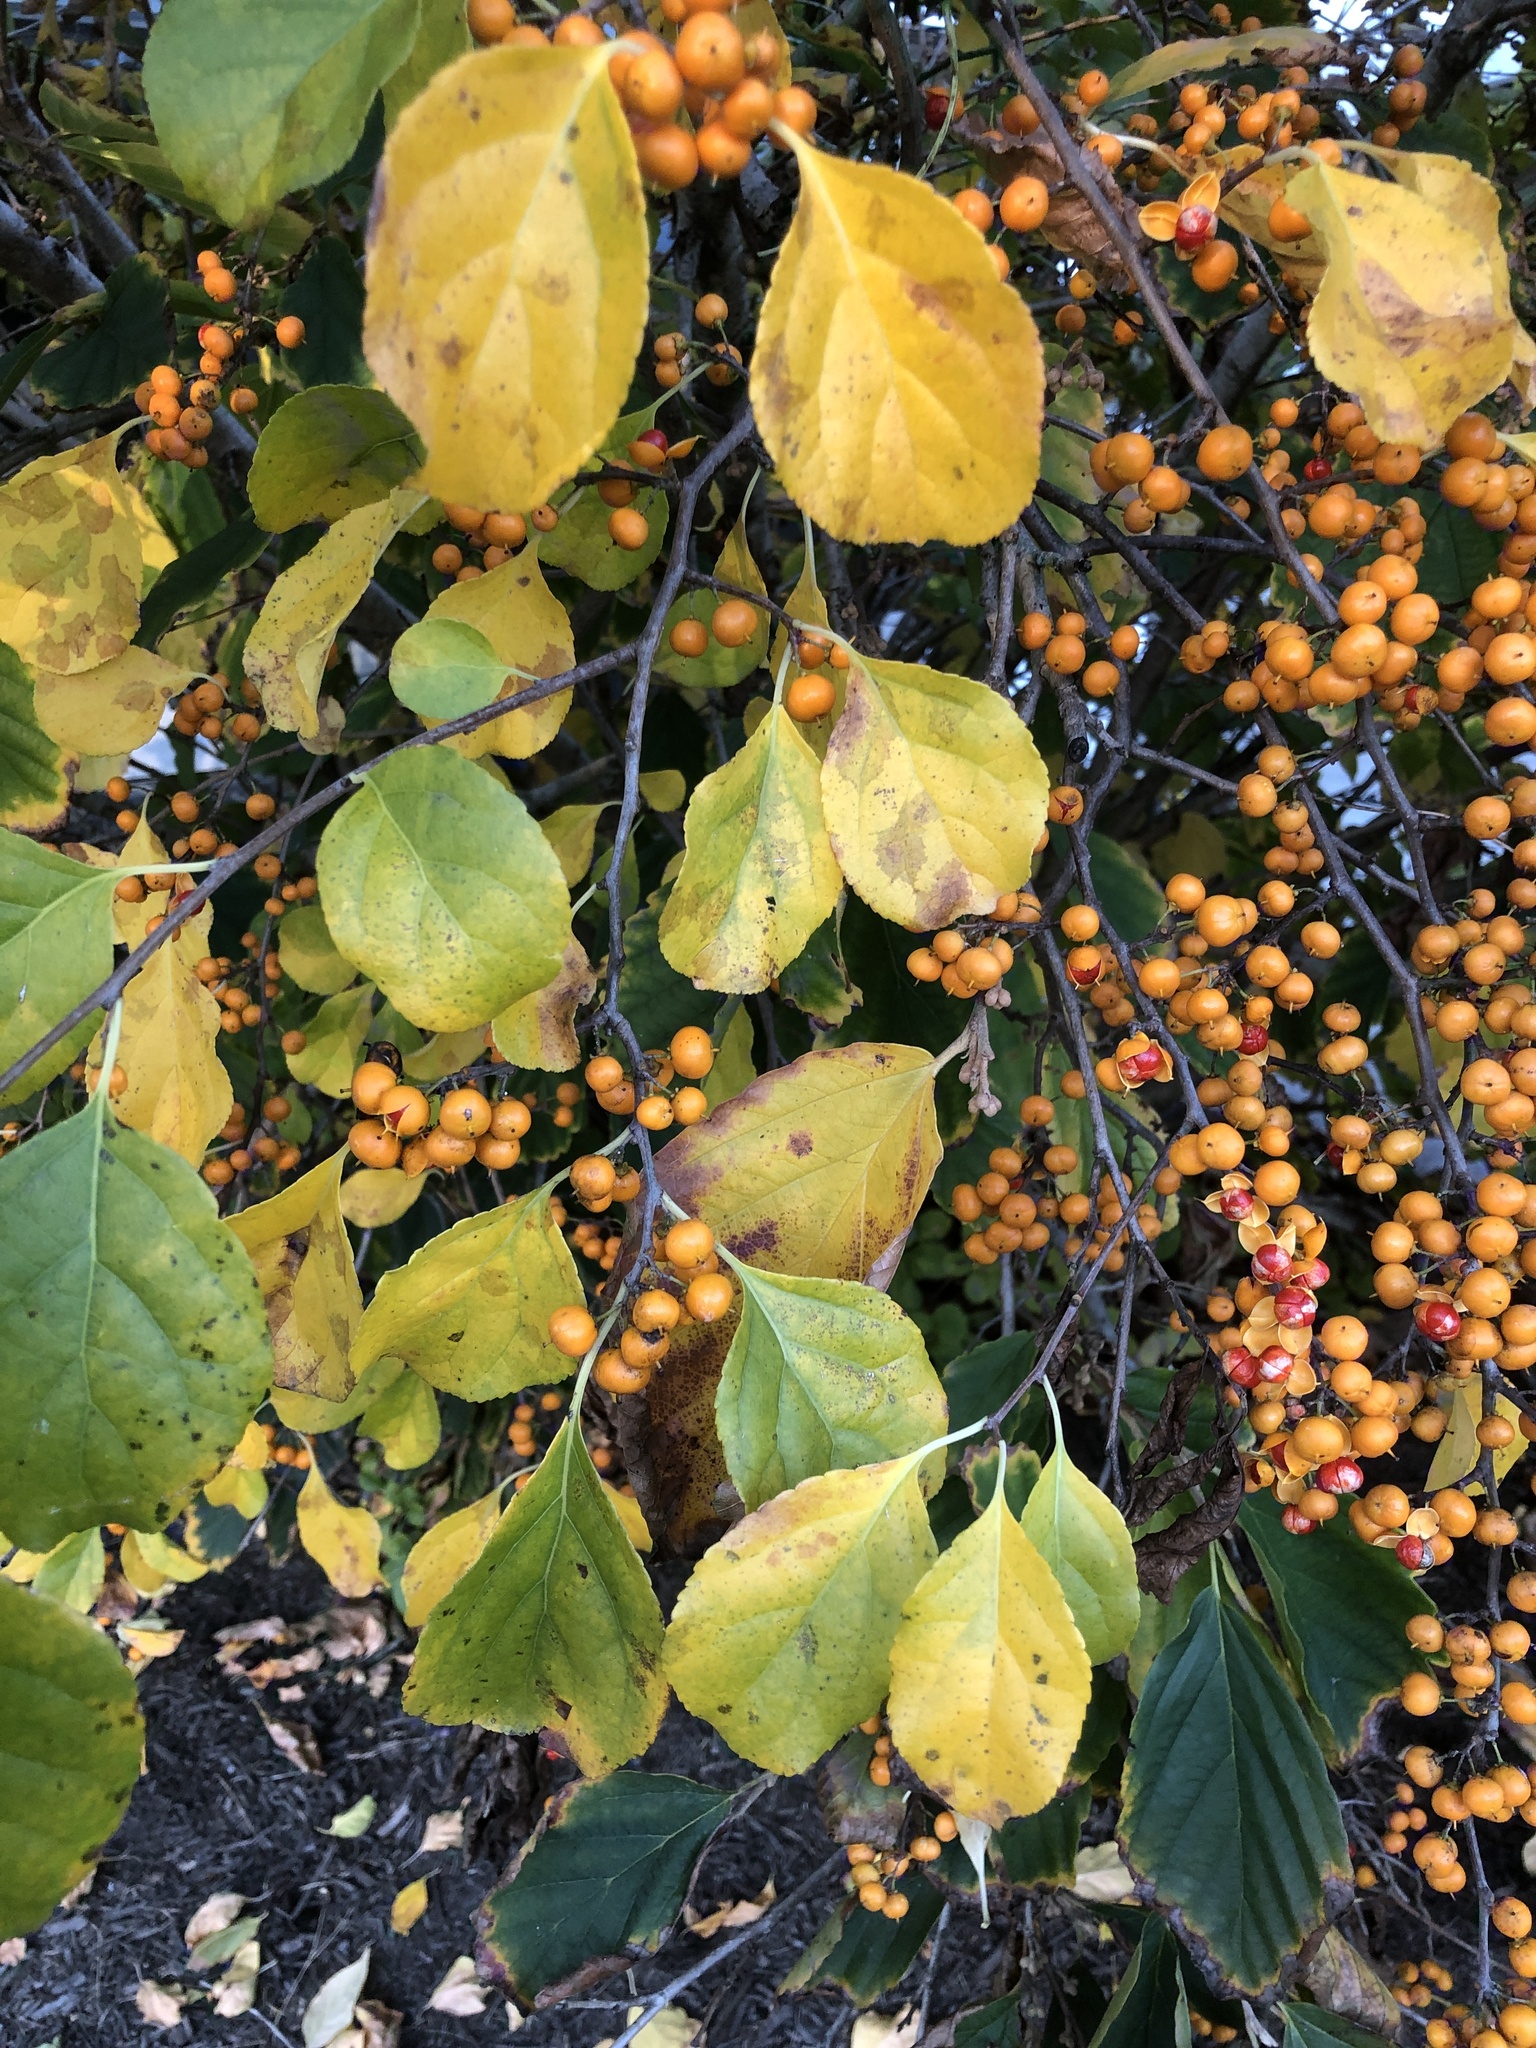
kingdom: Plantae
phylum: Tracheophyta
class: Magnoliopsida
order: Celastrales
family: Celastraceae
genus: Celastrus
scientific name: Celastrus orbiculatus
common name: Oriental bittersweet
